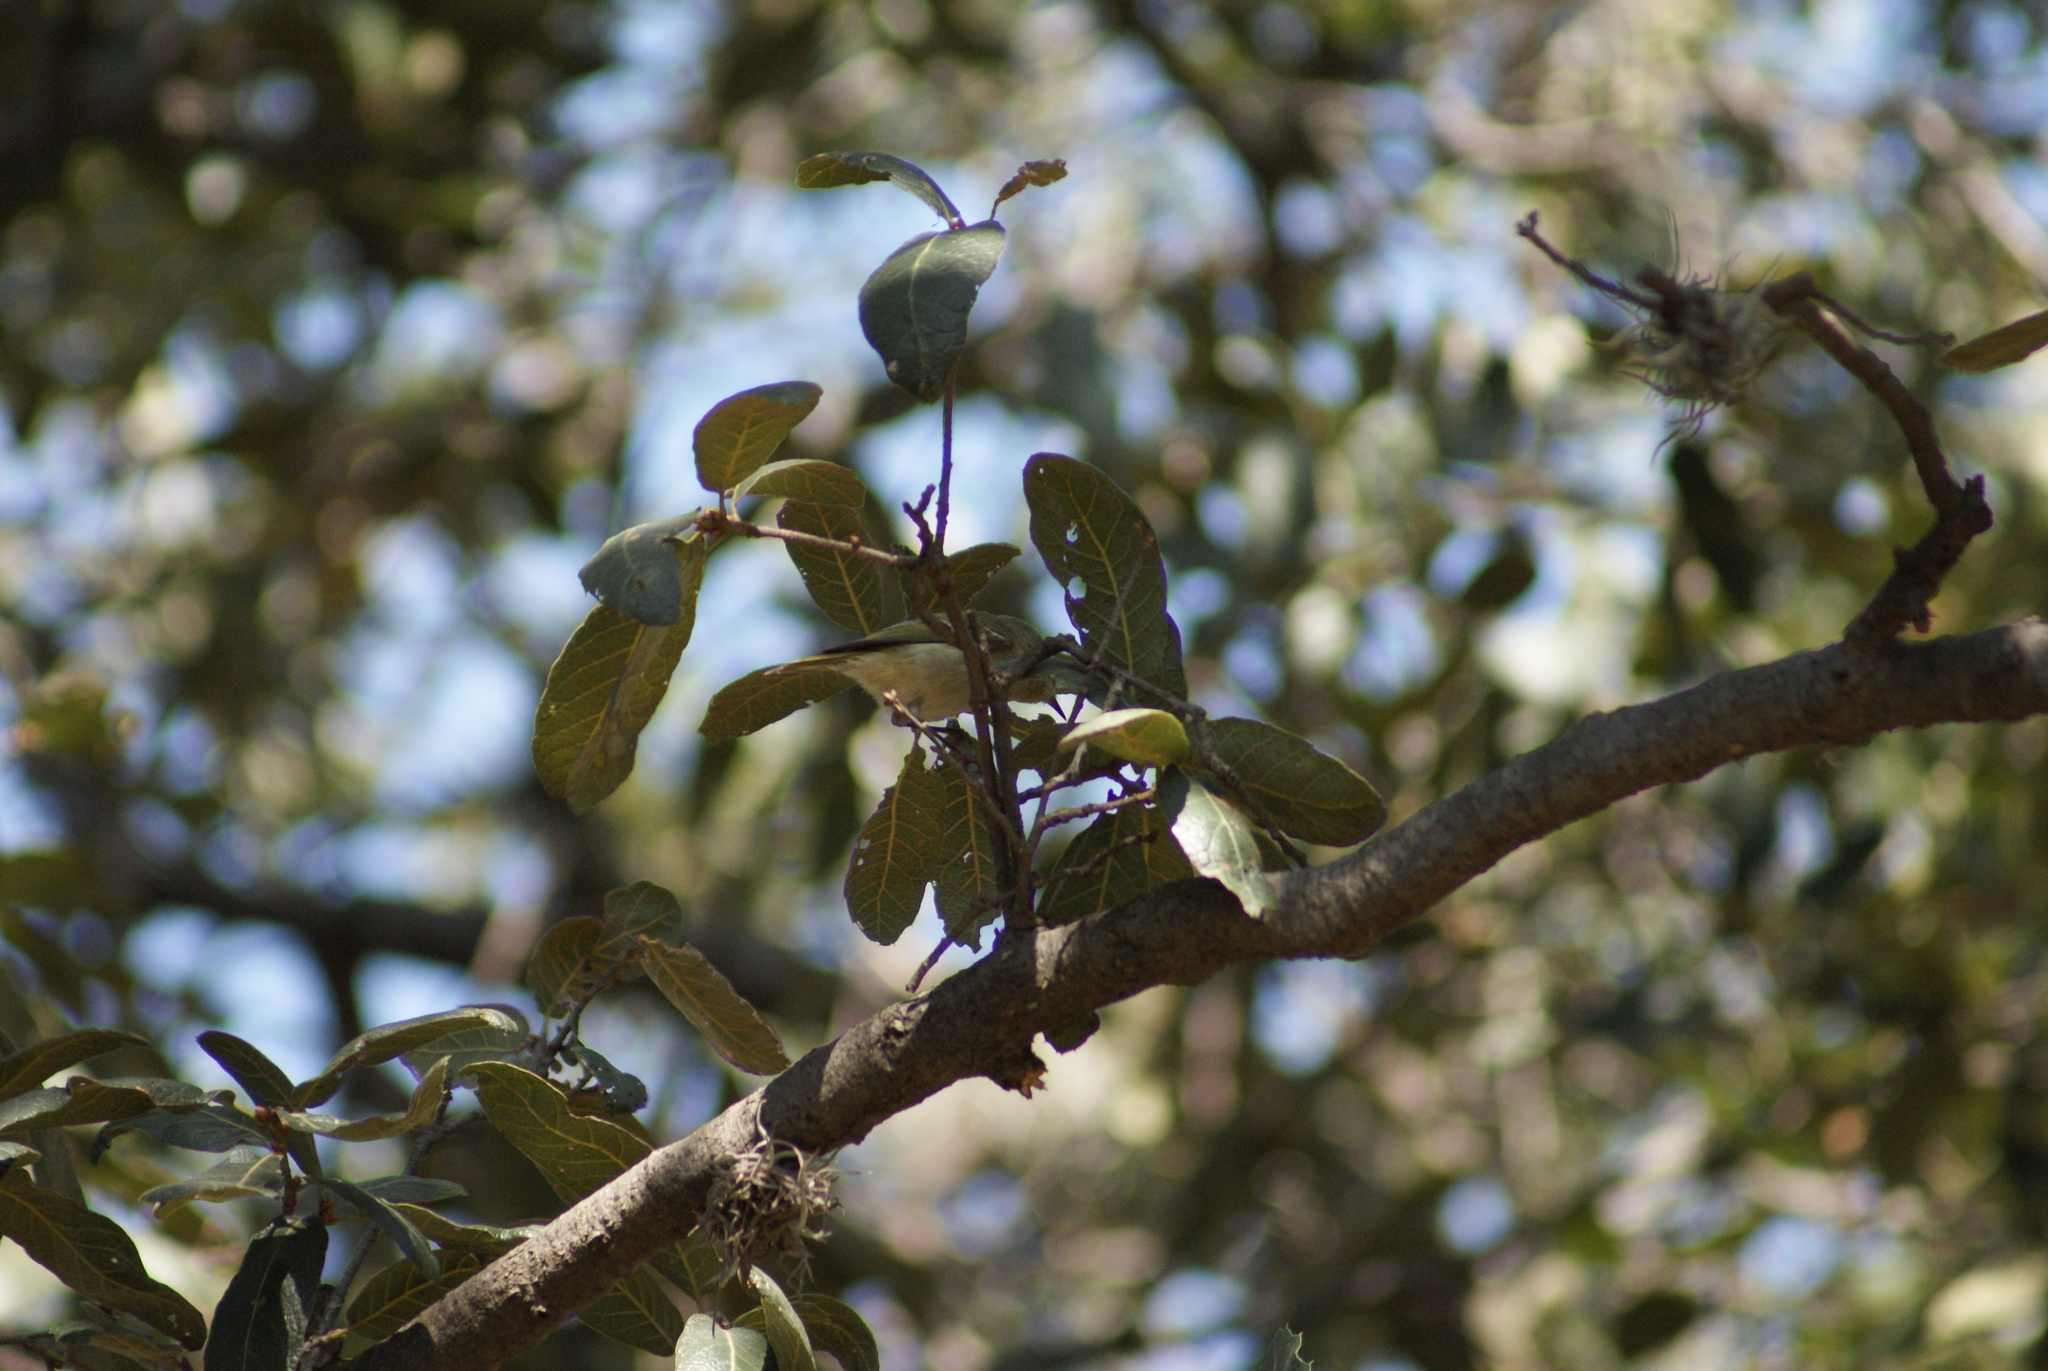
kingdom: Animalia
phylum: Chordata
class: Aves
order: Passeriformes
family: Regulidae
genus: Regulus
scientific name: Regulus calendula
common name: Ruby-crowned kinglet
